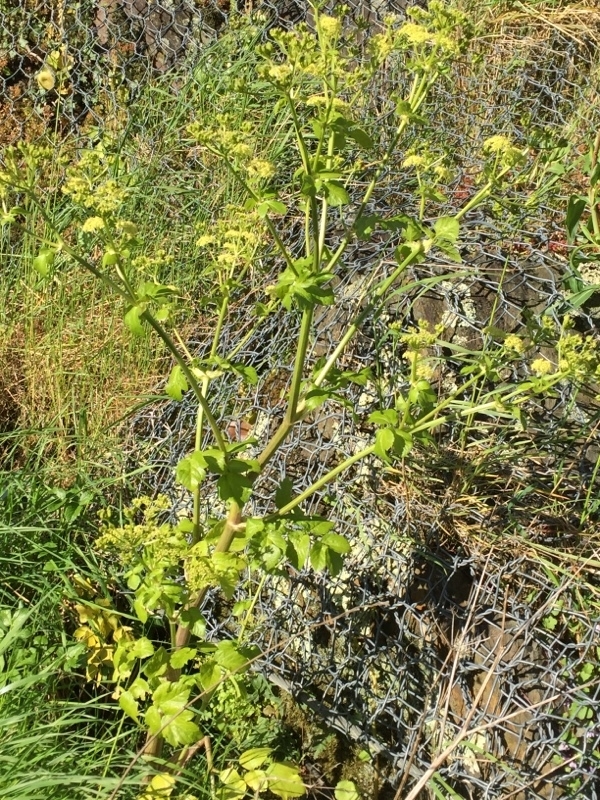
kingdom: Plantae
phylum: Tracheophyta
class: Magnoliopsida
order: Apiales
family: Apiaceae
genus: Smyrnium
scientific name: Smyrnium olusatrum
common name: Alexanders
